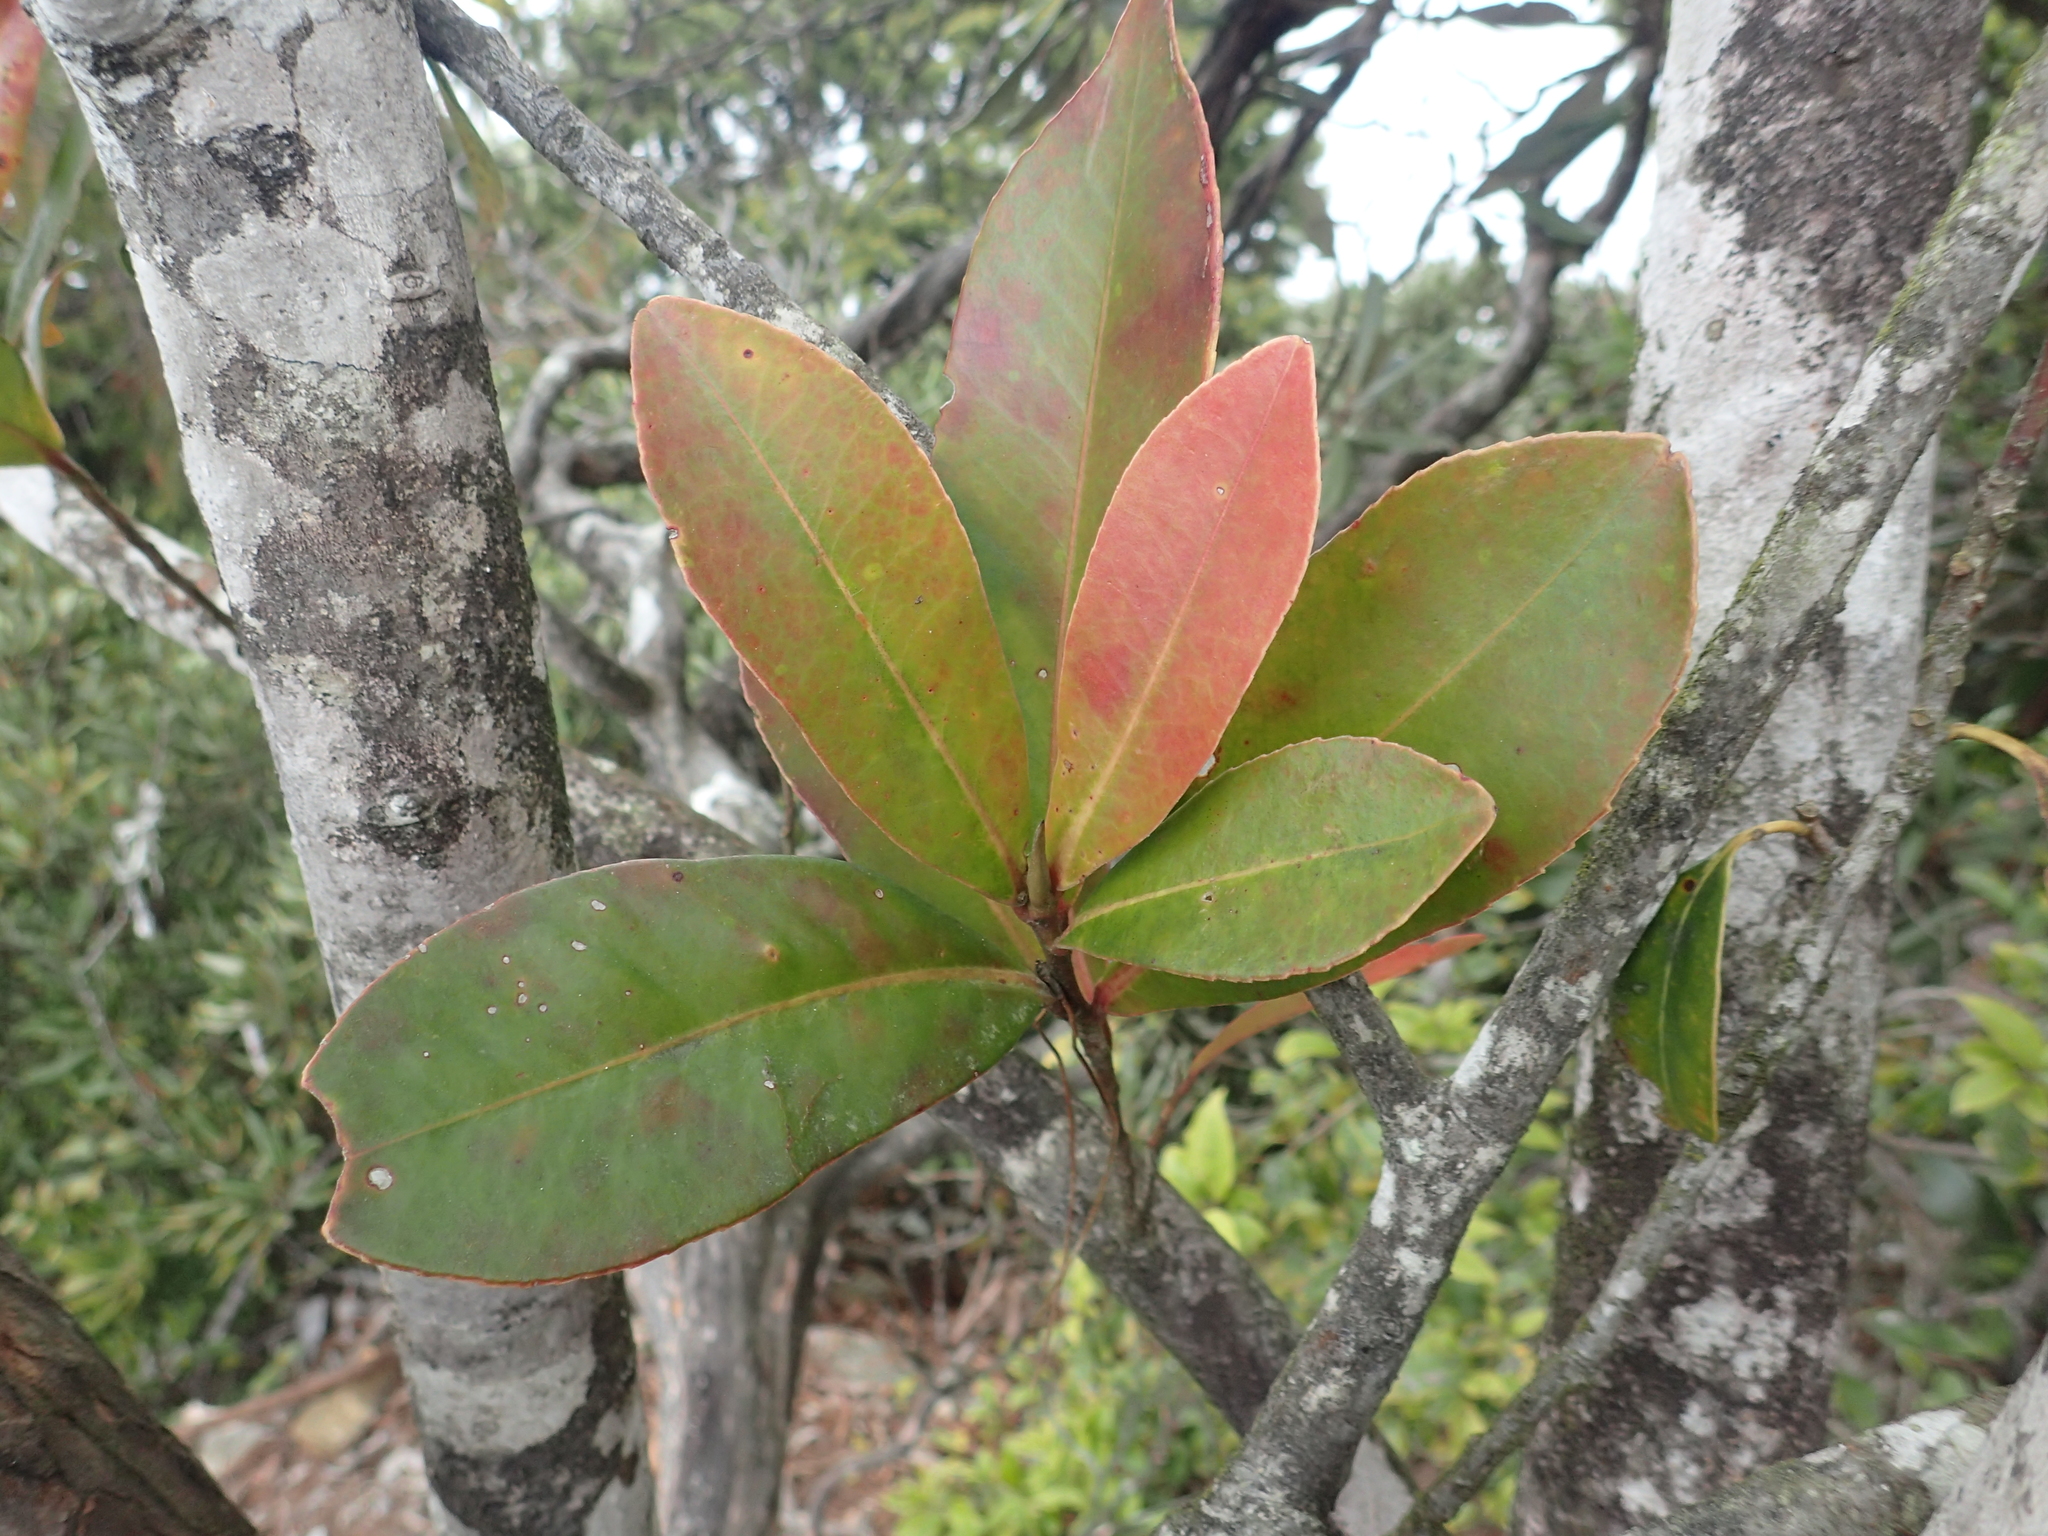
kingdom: Plantae
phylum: Tracheophyta
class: Magnoliopsida
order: Ericales
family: Theaceae
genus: Polyspora
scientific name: Polyspora axillaris
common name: Fried egg tree
